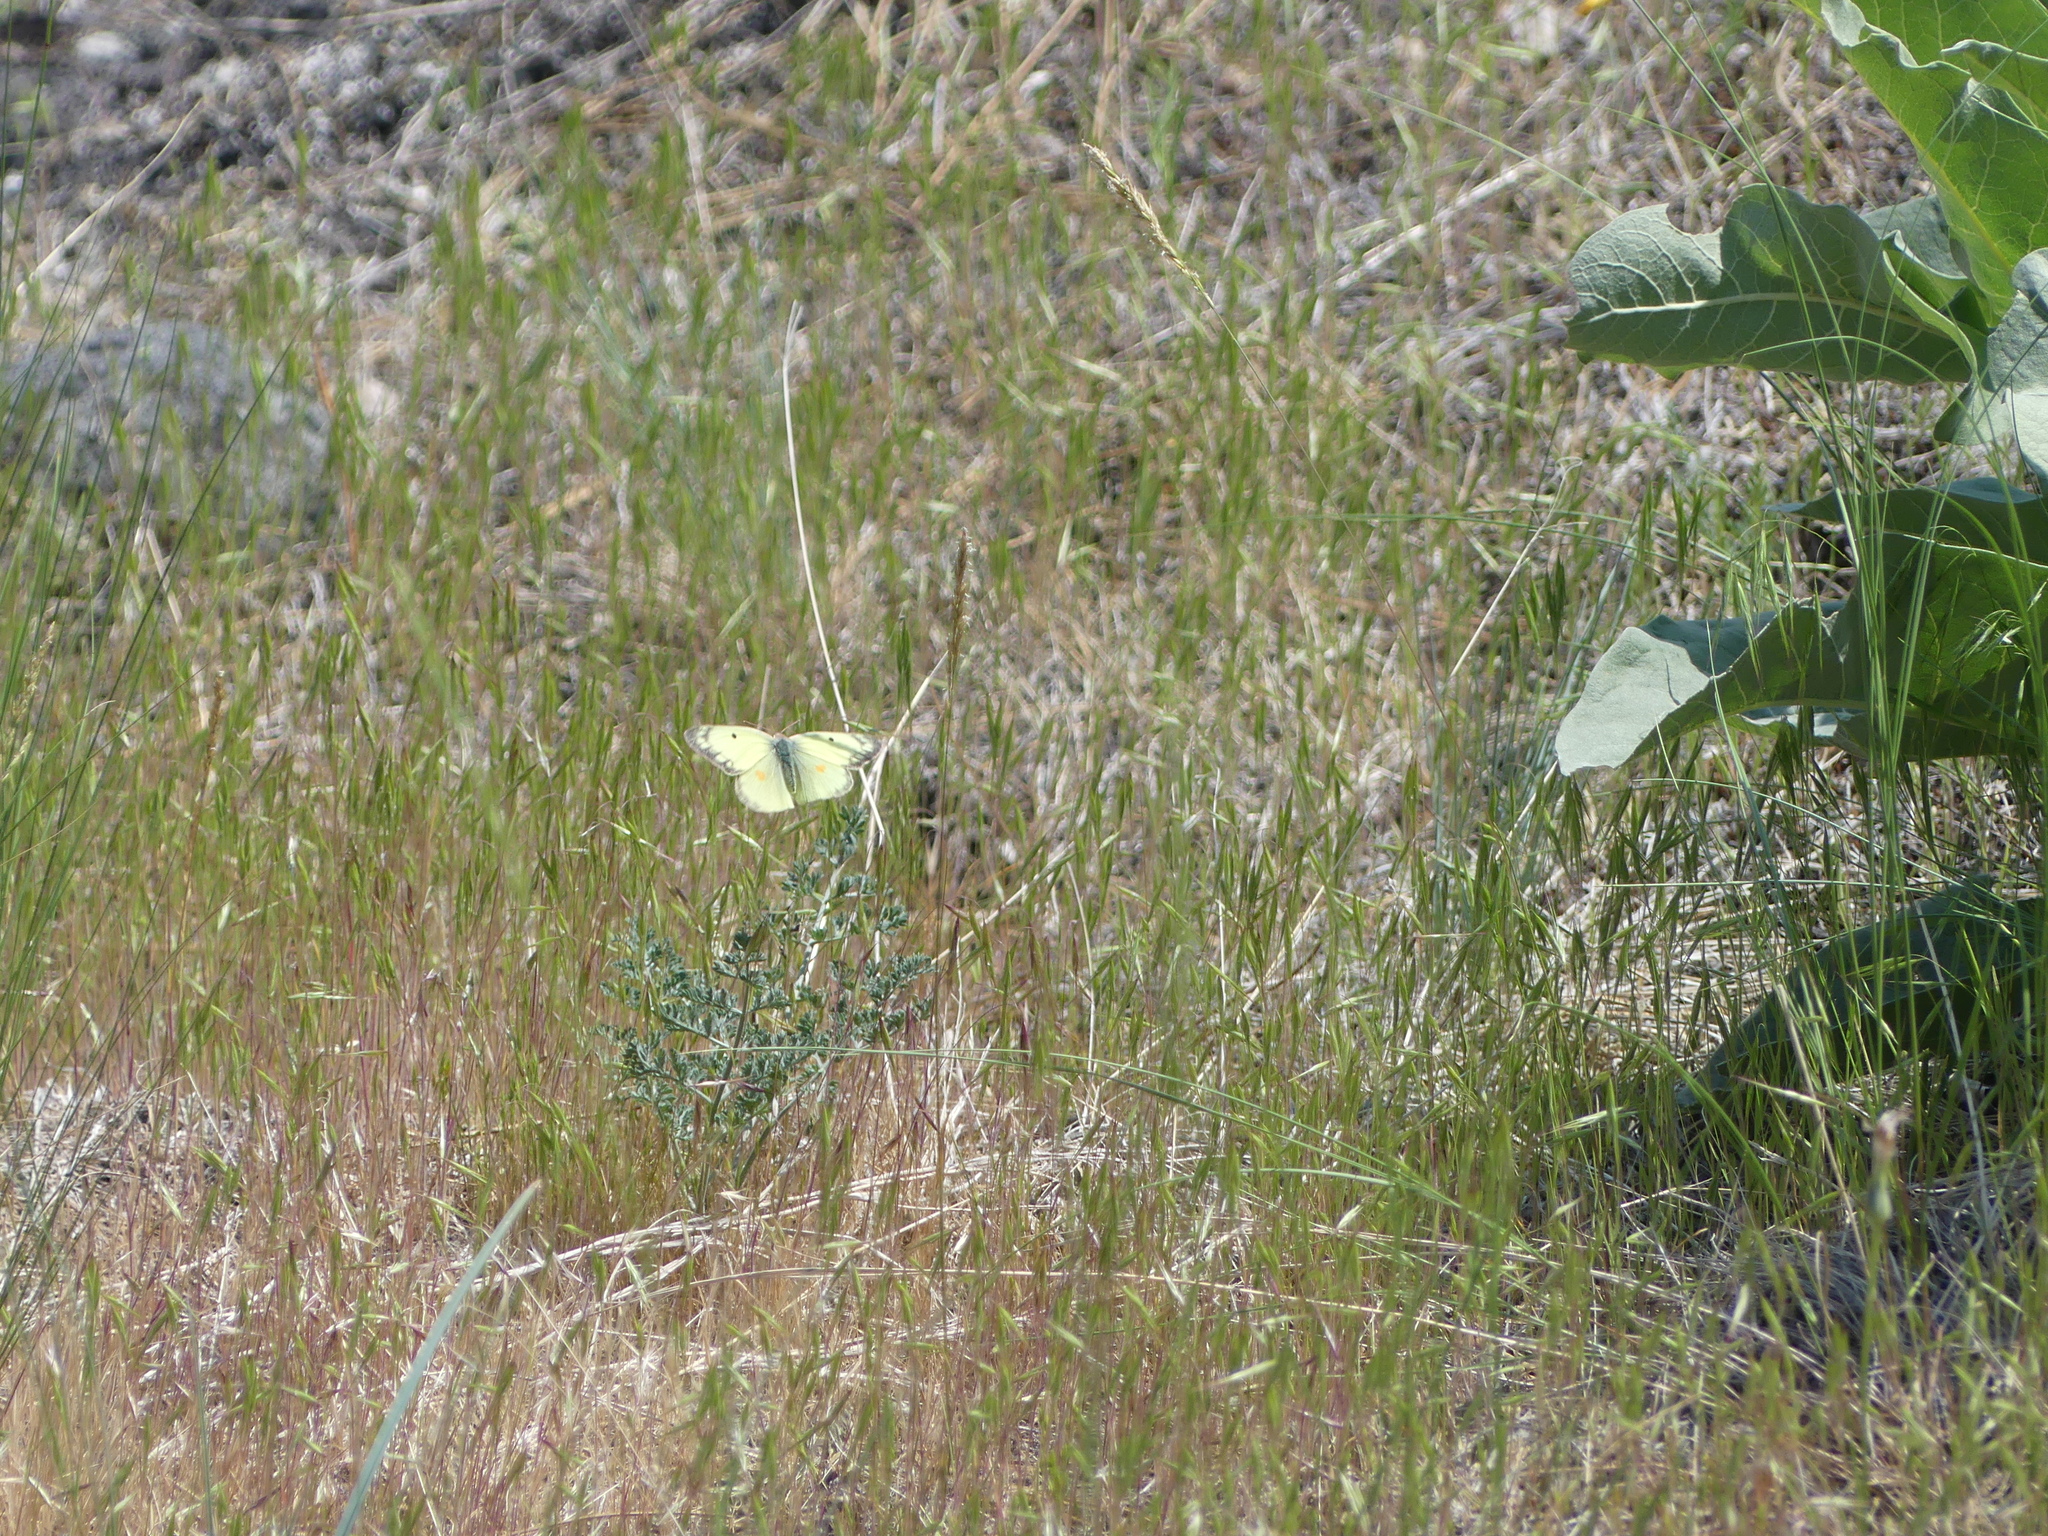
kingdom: Animalia
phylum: Arthropoda
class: Insecta
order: Lepidoptera
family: Pieridae
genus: Colias
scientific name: Colias philodice
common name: Clouded sulphur
